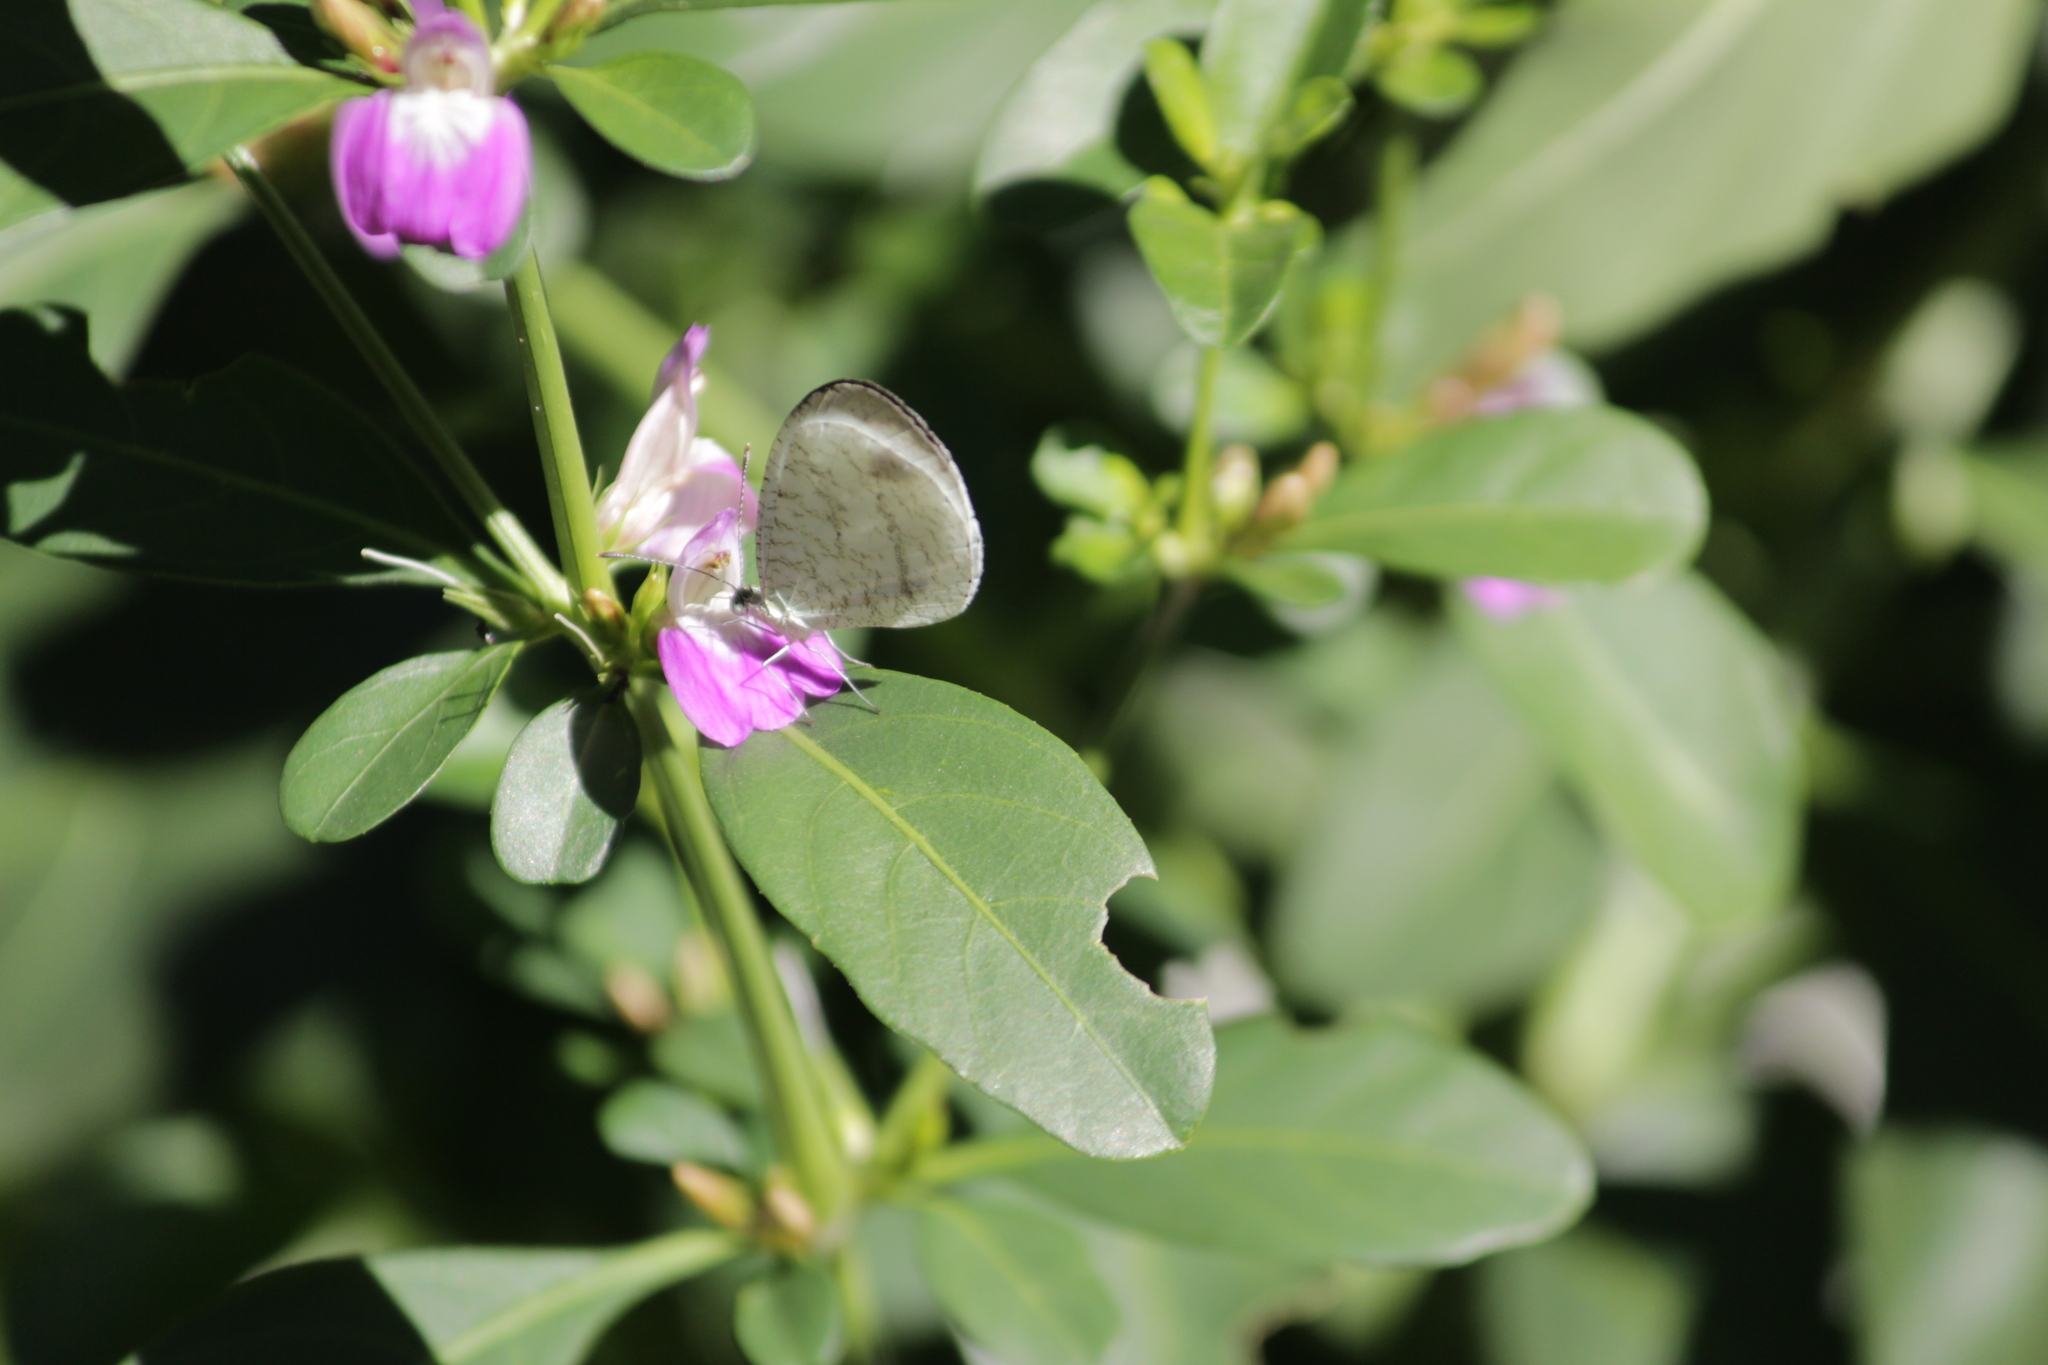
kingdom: Animalia
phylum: Arthropoda
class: Insecta
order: Lepidoptera
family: Pieridae
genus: Leptosia
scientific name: Leptosia alcesta
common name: African wood white
